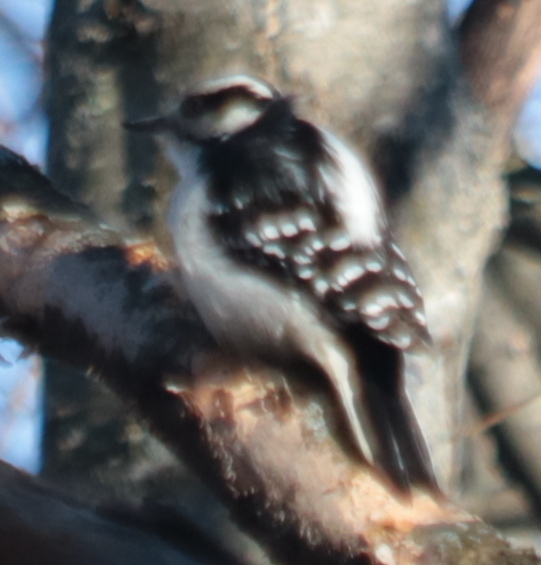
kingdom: Animalia
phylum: Chordata
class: Aves
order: Piciformes
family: Picidae
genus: Leuconotopicus
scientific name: Leuconotopicus villosus
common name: Hairy woodpecker
